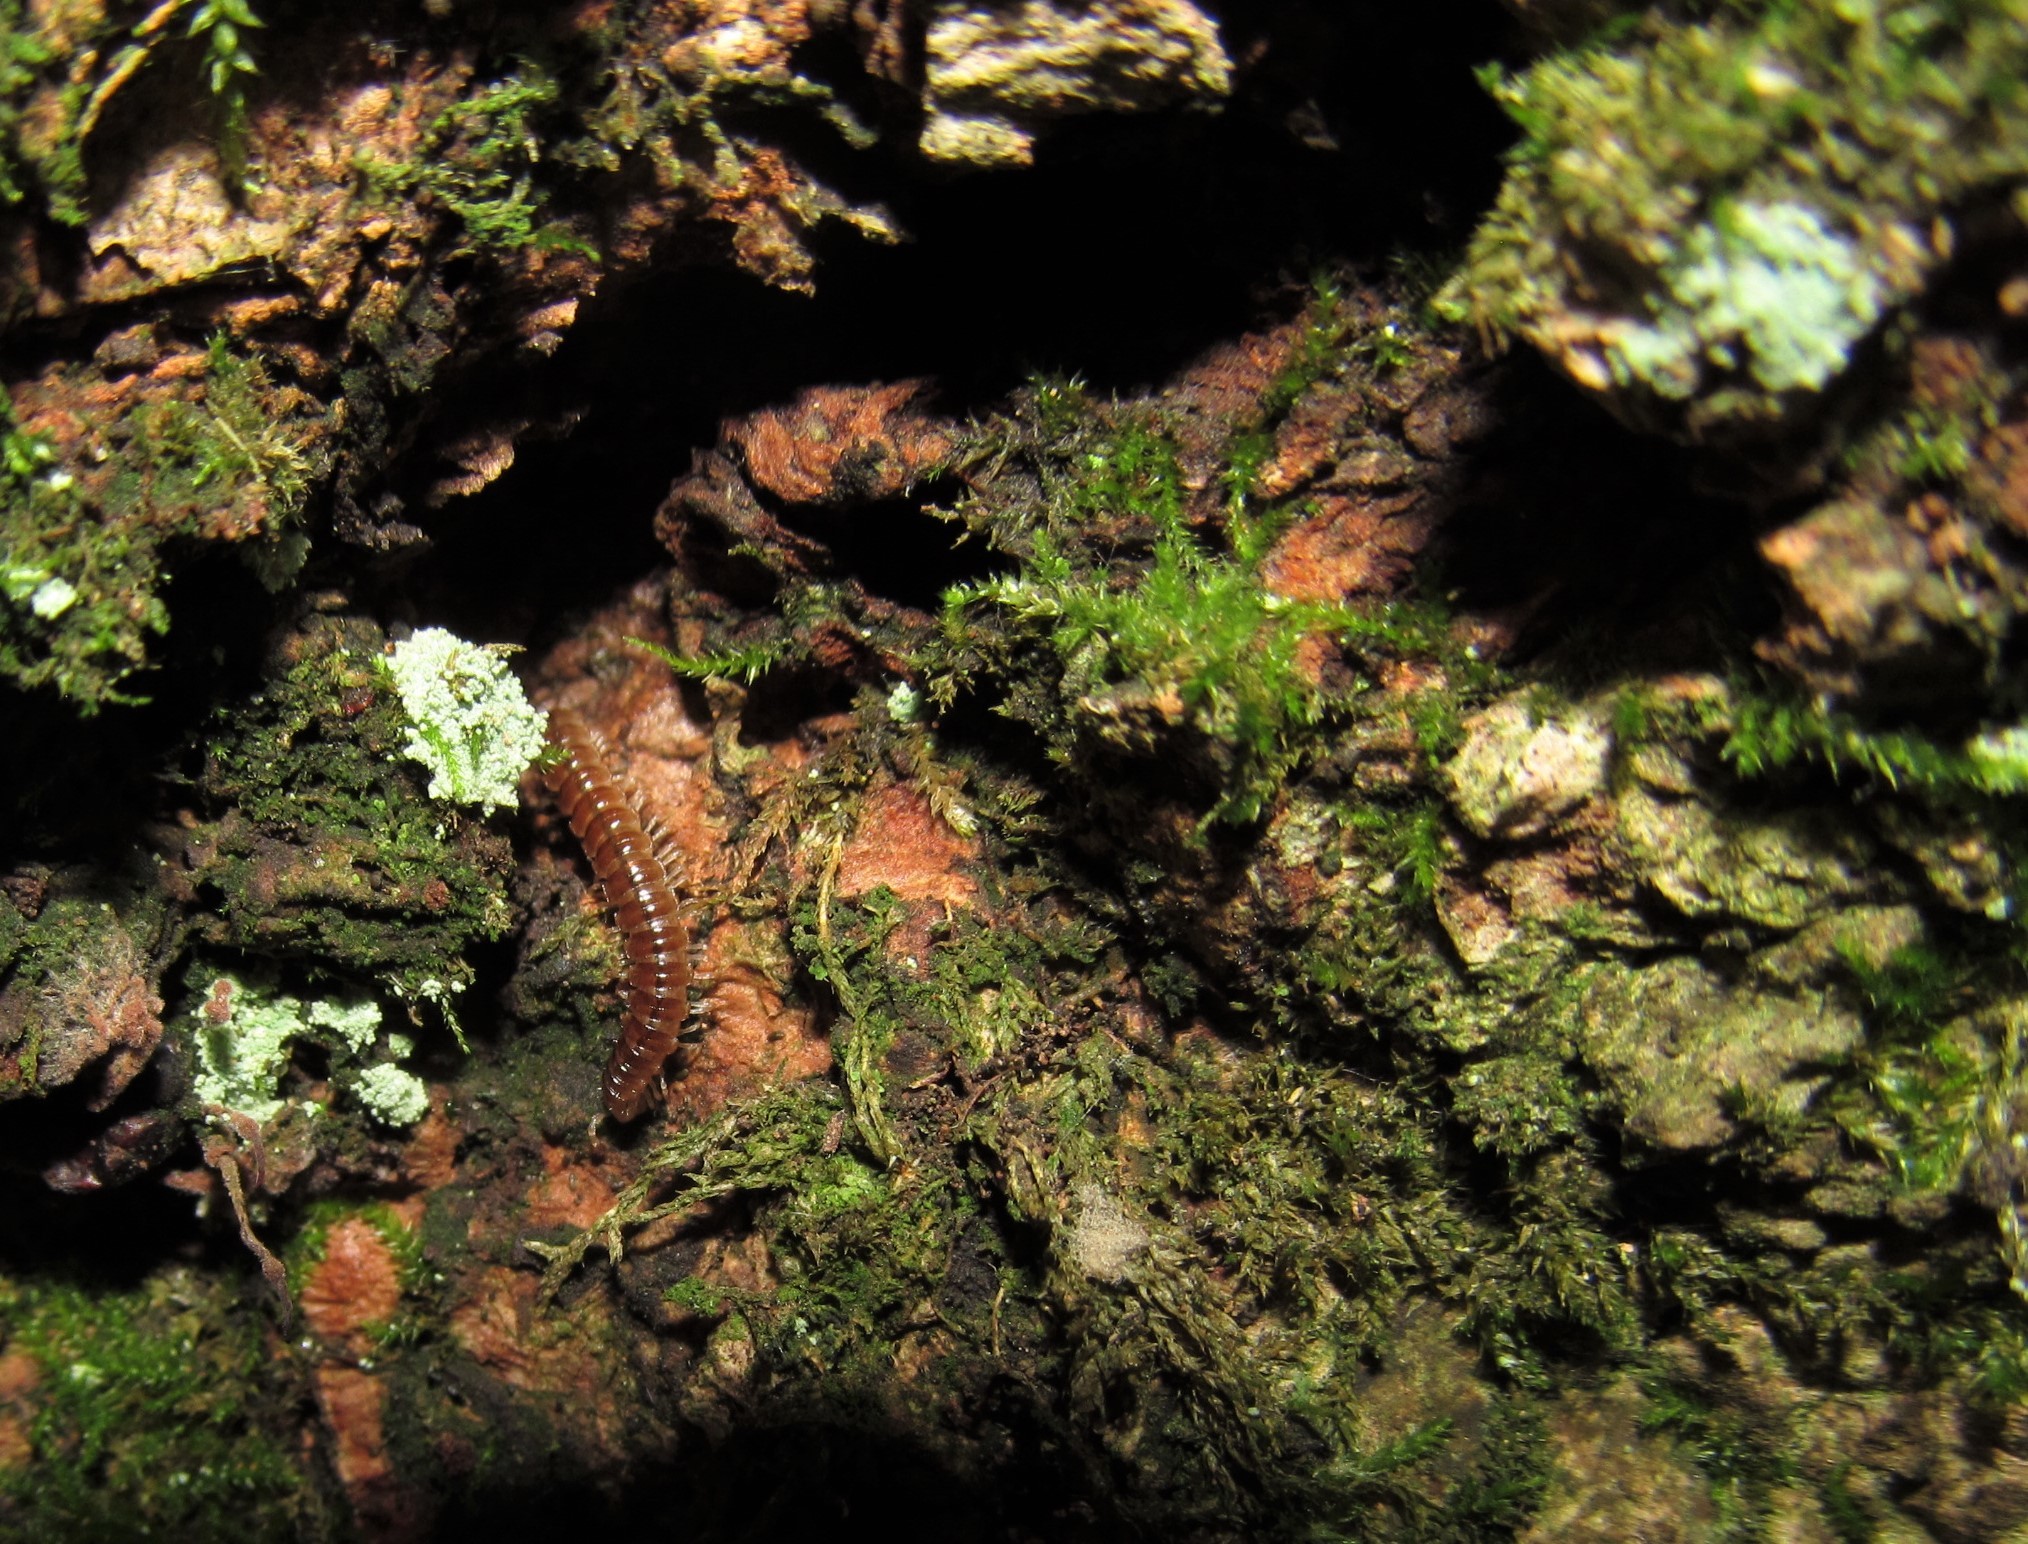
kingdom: Animalia
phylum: Arthropoda
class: Diplopoda
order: Polydesmida
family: Paradoxosomatidae
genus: Oxidus
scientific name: Oxidus gracilis
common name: Greenhouse millipede
